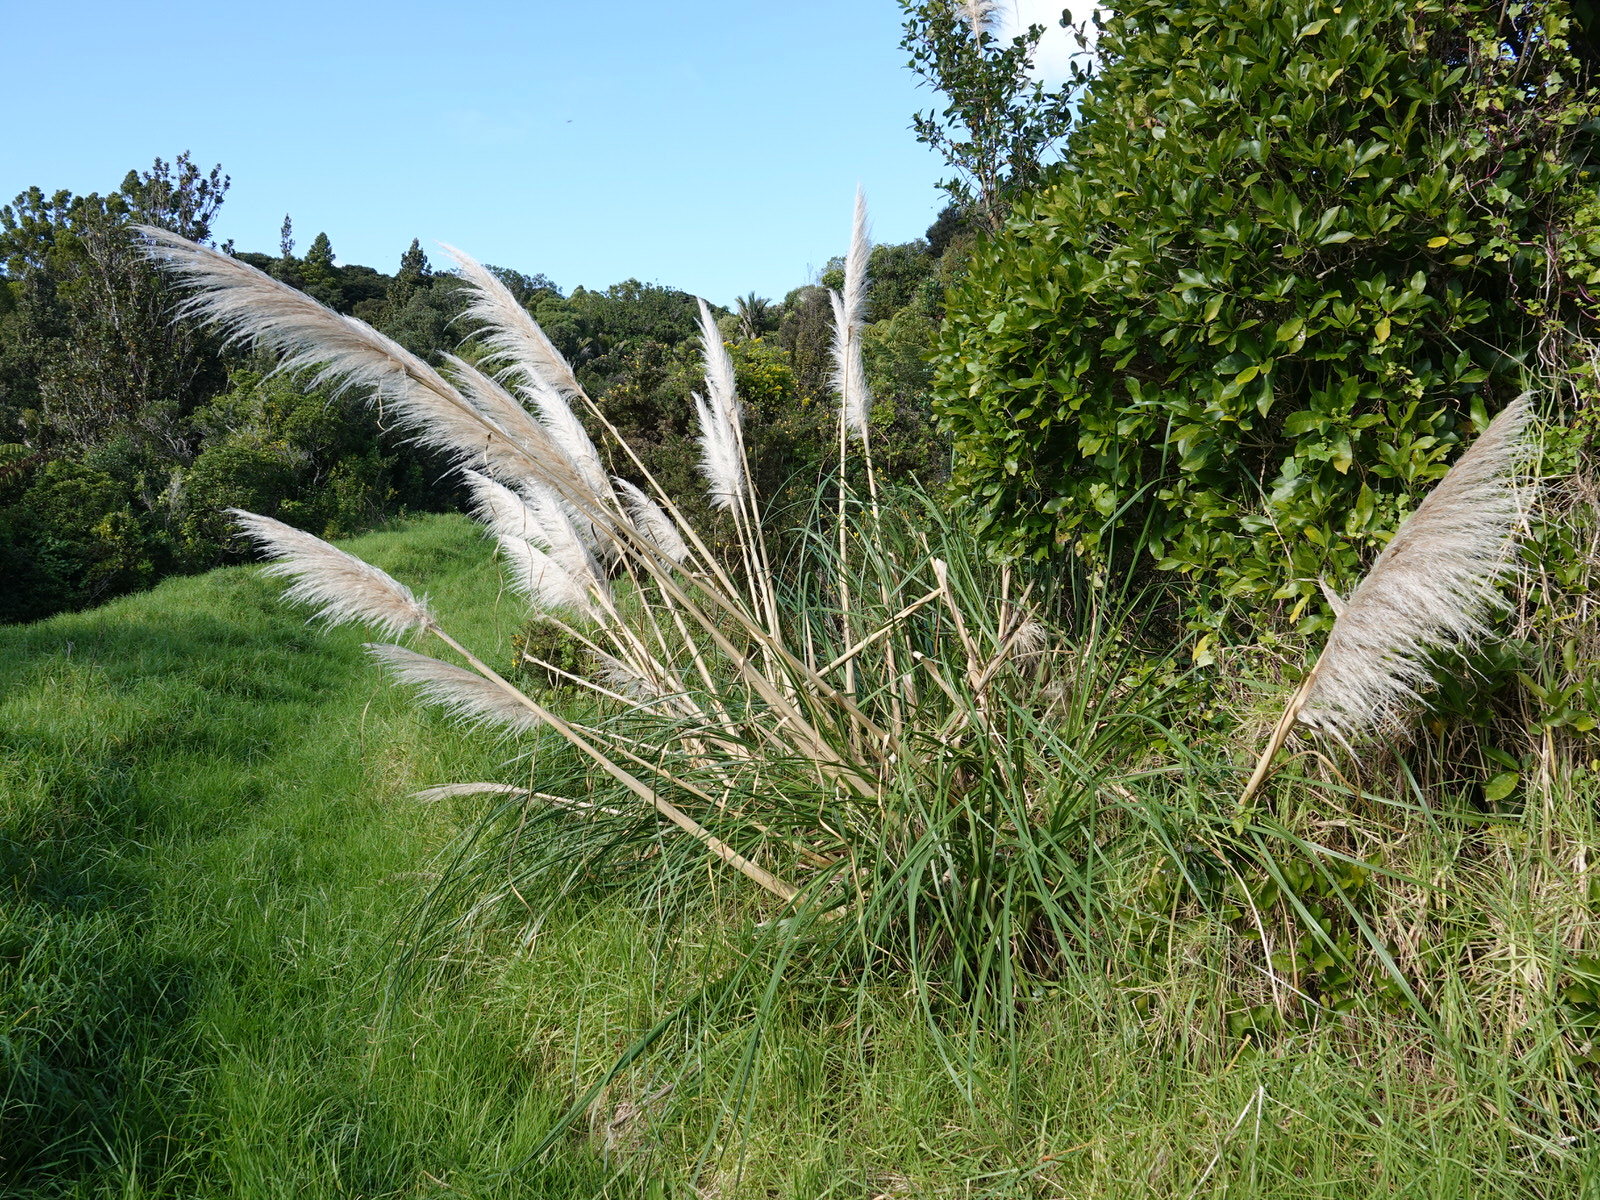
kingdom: Plantae
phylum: Tracheophyta
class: Liliopsida
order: Poales
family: Poaceae
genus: Cortaderia
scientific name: Cortaderia selloana
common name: Uruguayan pampas grass
